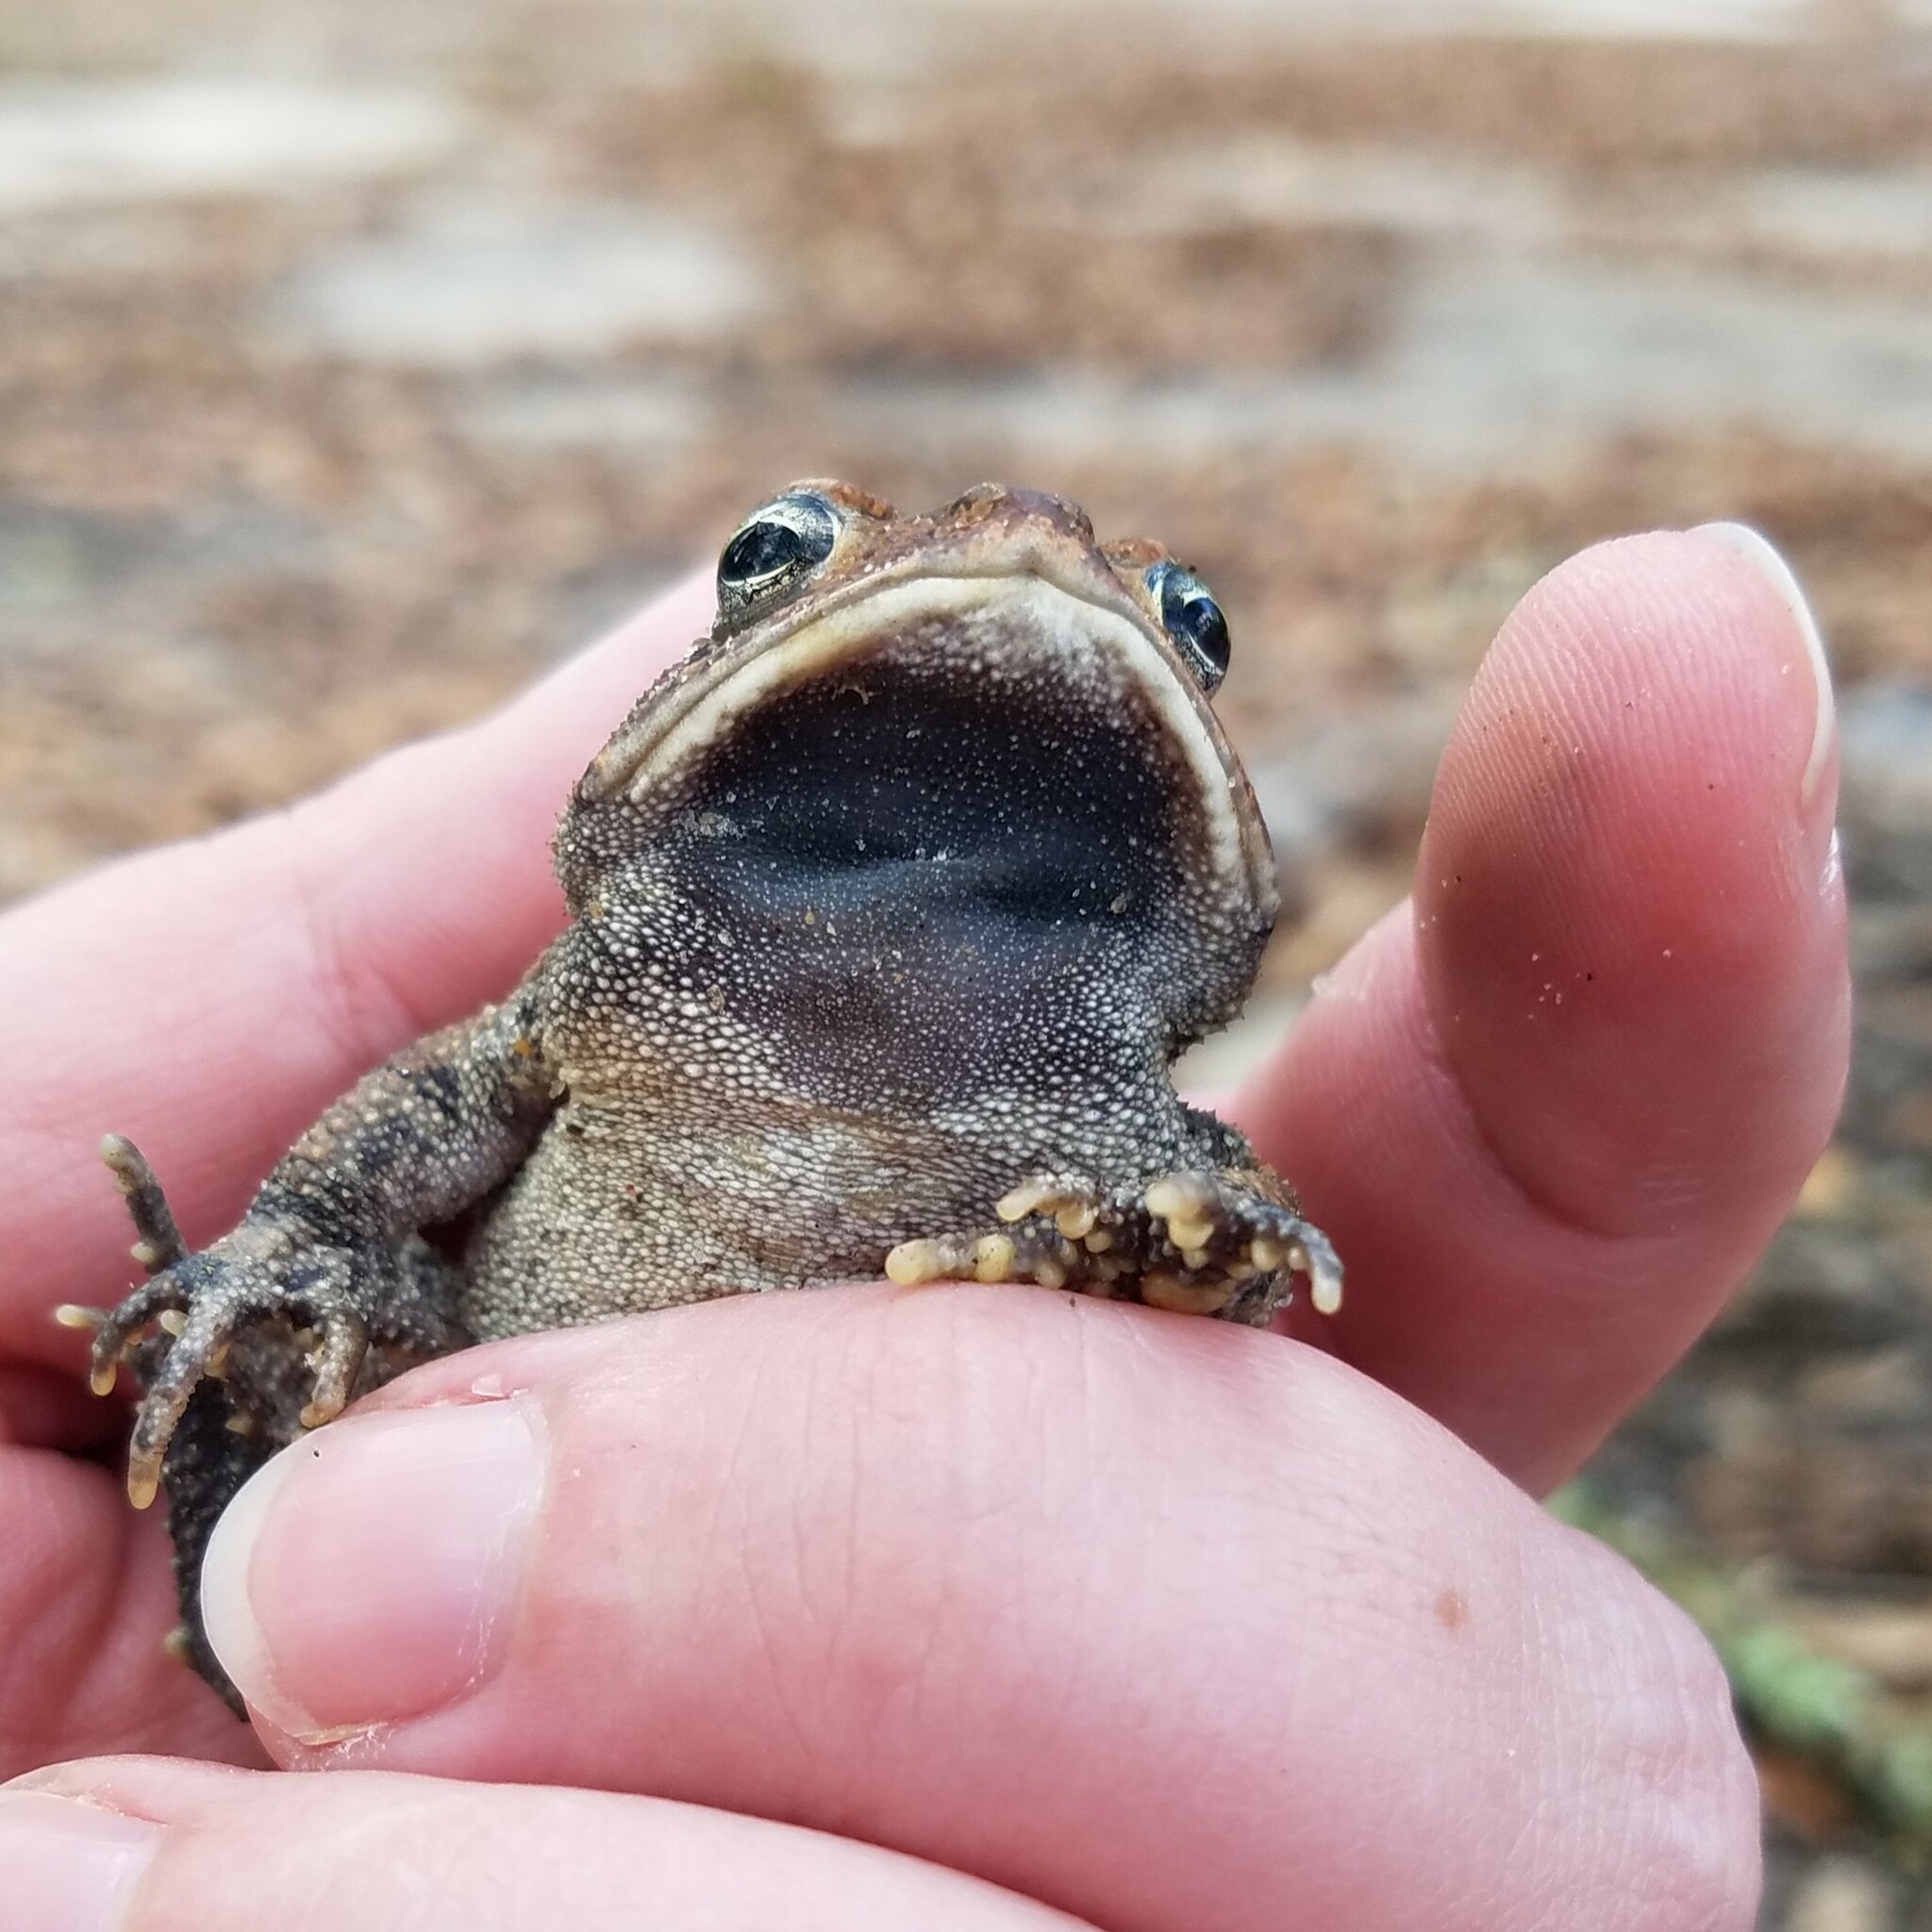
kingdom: Animalia
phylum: Chordata
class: Amphibia
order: Anura
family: Bufonidae
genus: Anaxyrus
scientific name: Anaxyrus terrestris
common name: Southern toad
